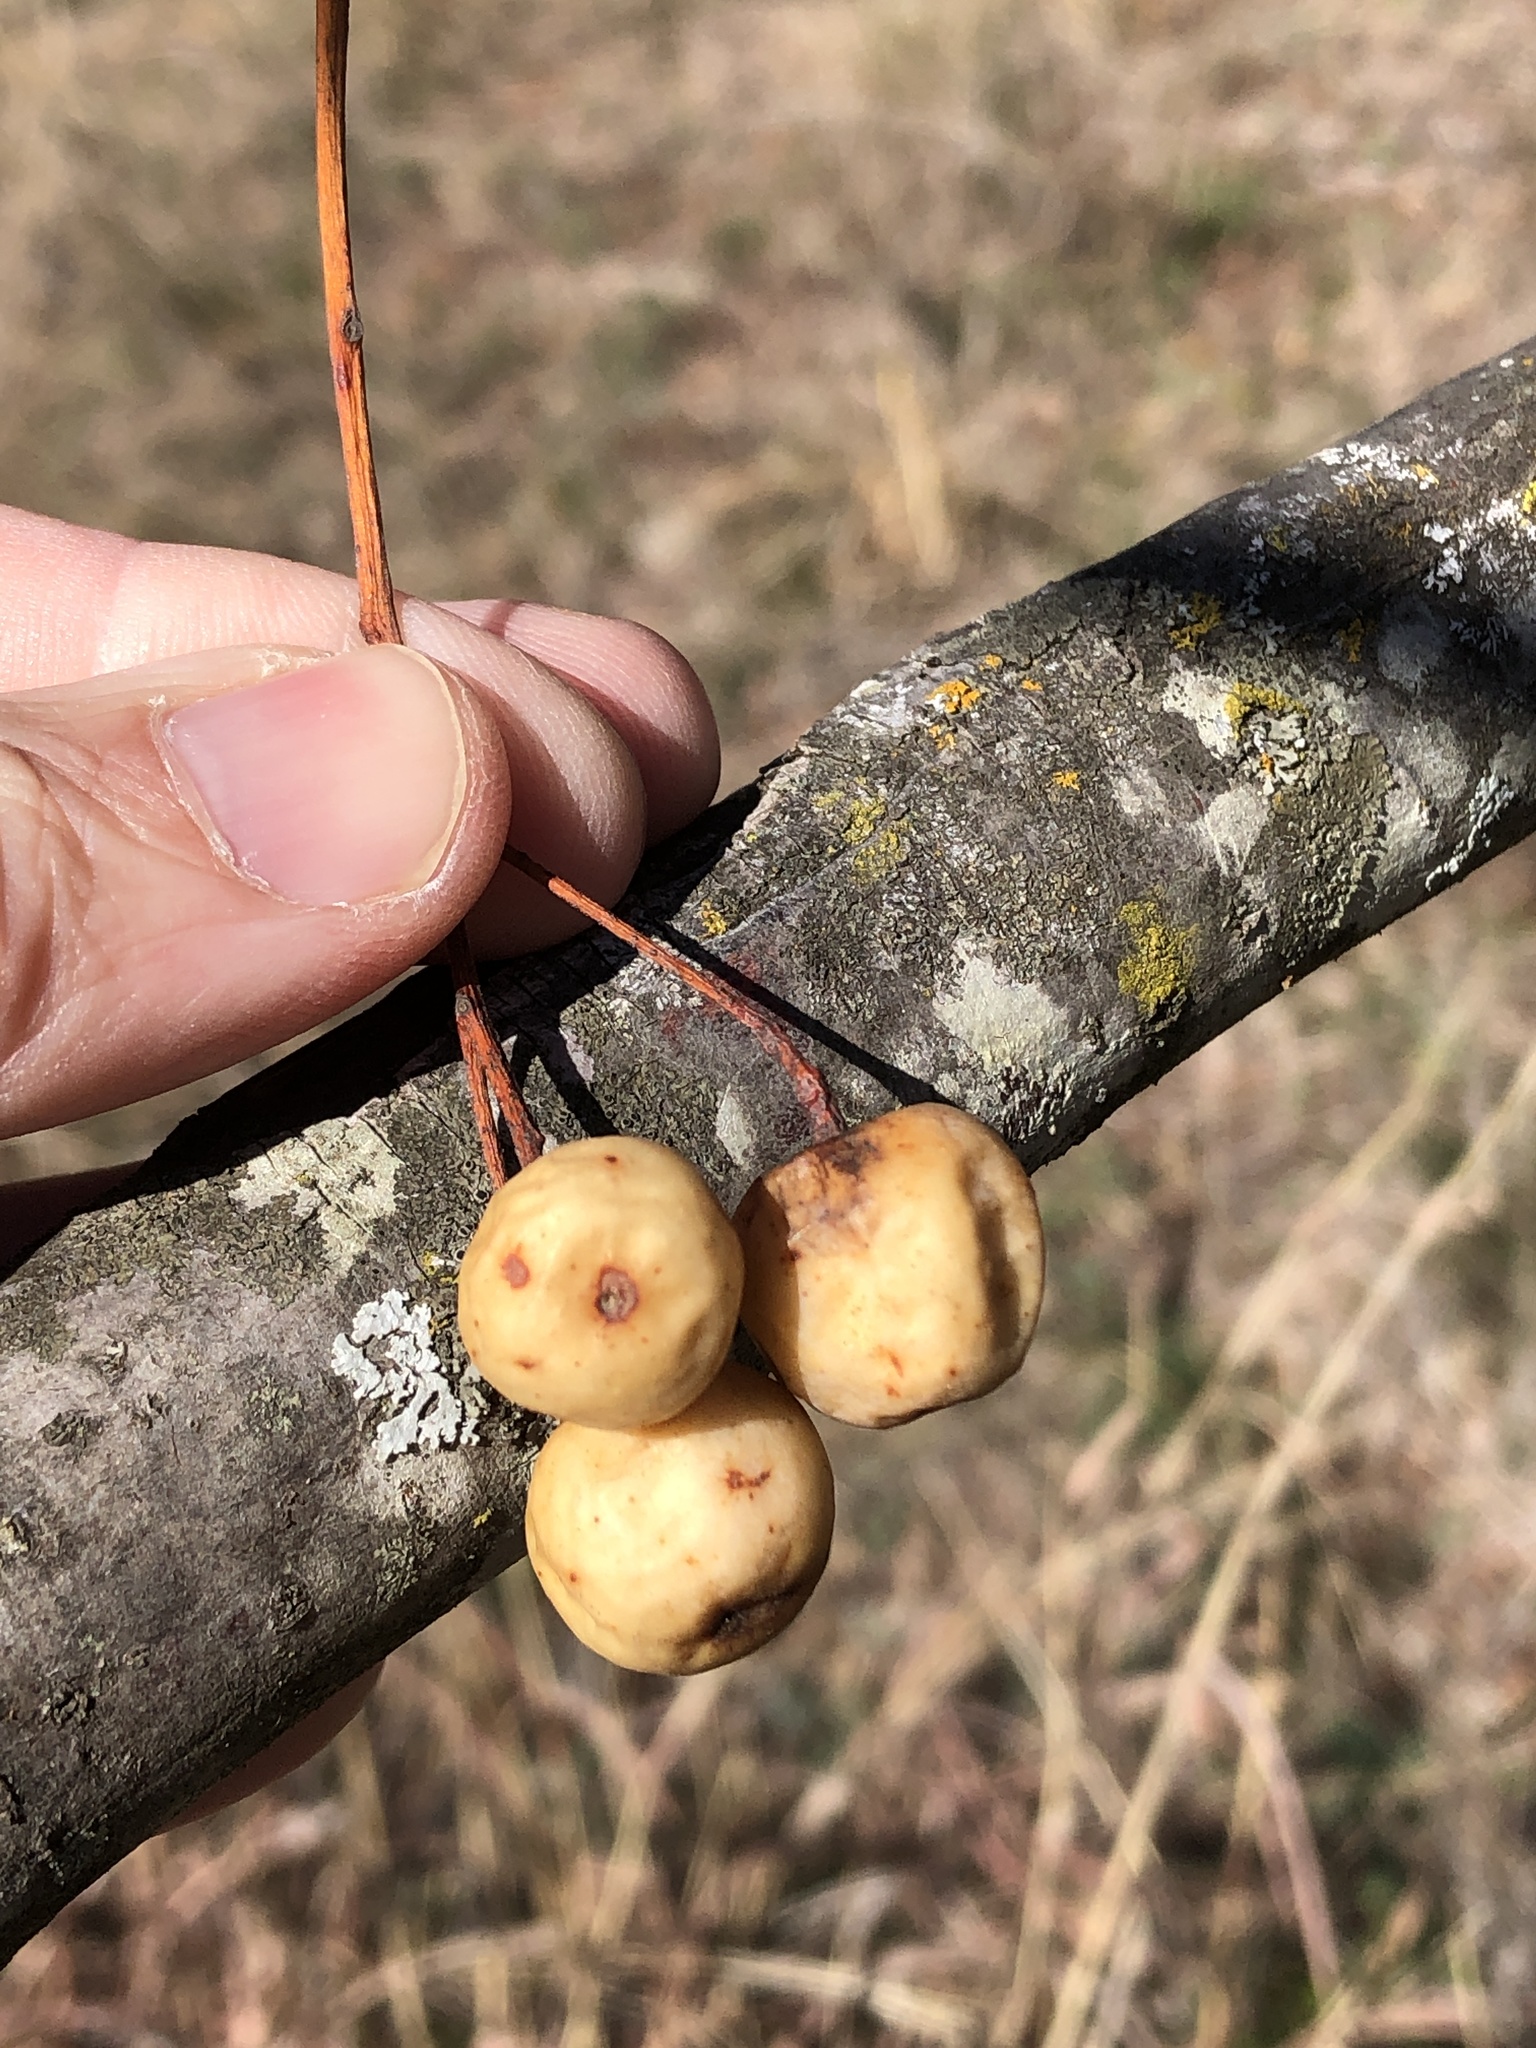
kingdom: Plantae
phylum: Tracheophyta
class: Magnoliopsida
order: Sapindales
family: Meliaceae
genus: Melia
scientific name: Melia azedarach
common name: Chinaberrytree
